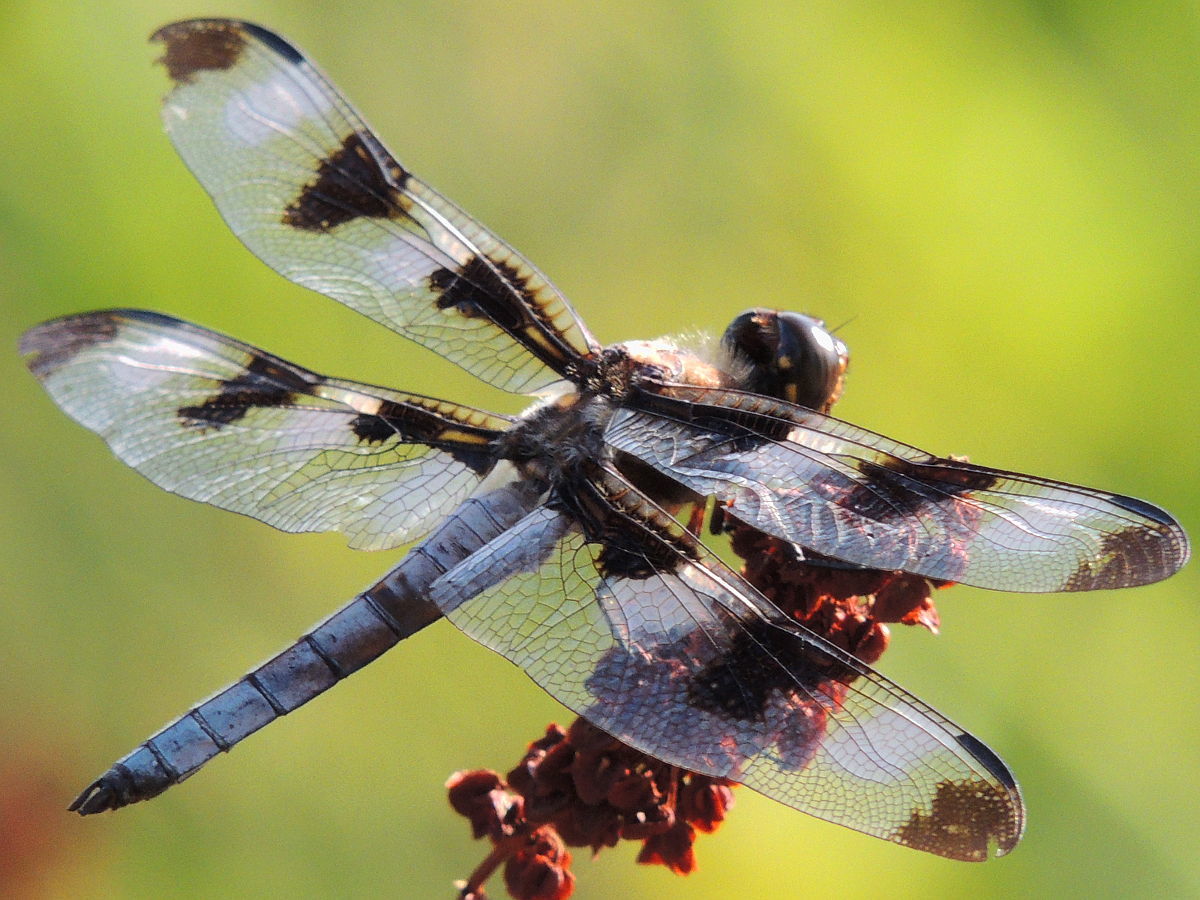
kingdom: Animalia
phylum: Arthropoda
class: Insecta
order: Odonata
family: Libellulidae
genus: Libellula
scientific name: Libellula pulchella
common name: Twelve-spotted skimmer
